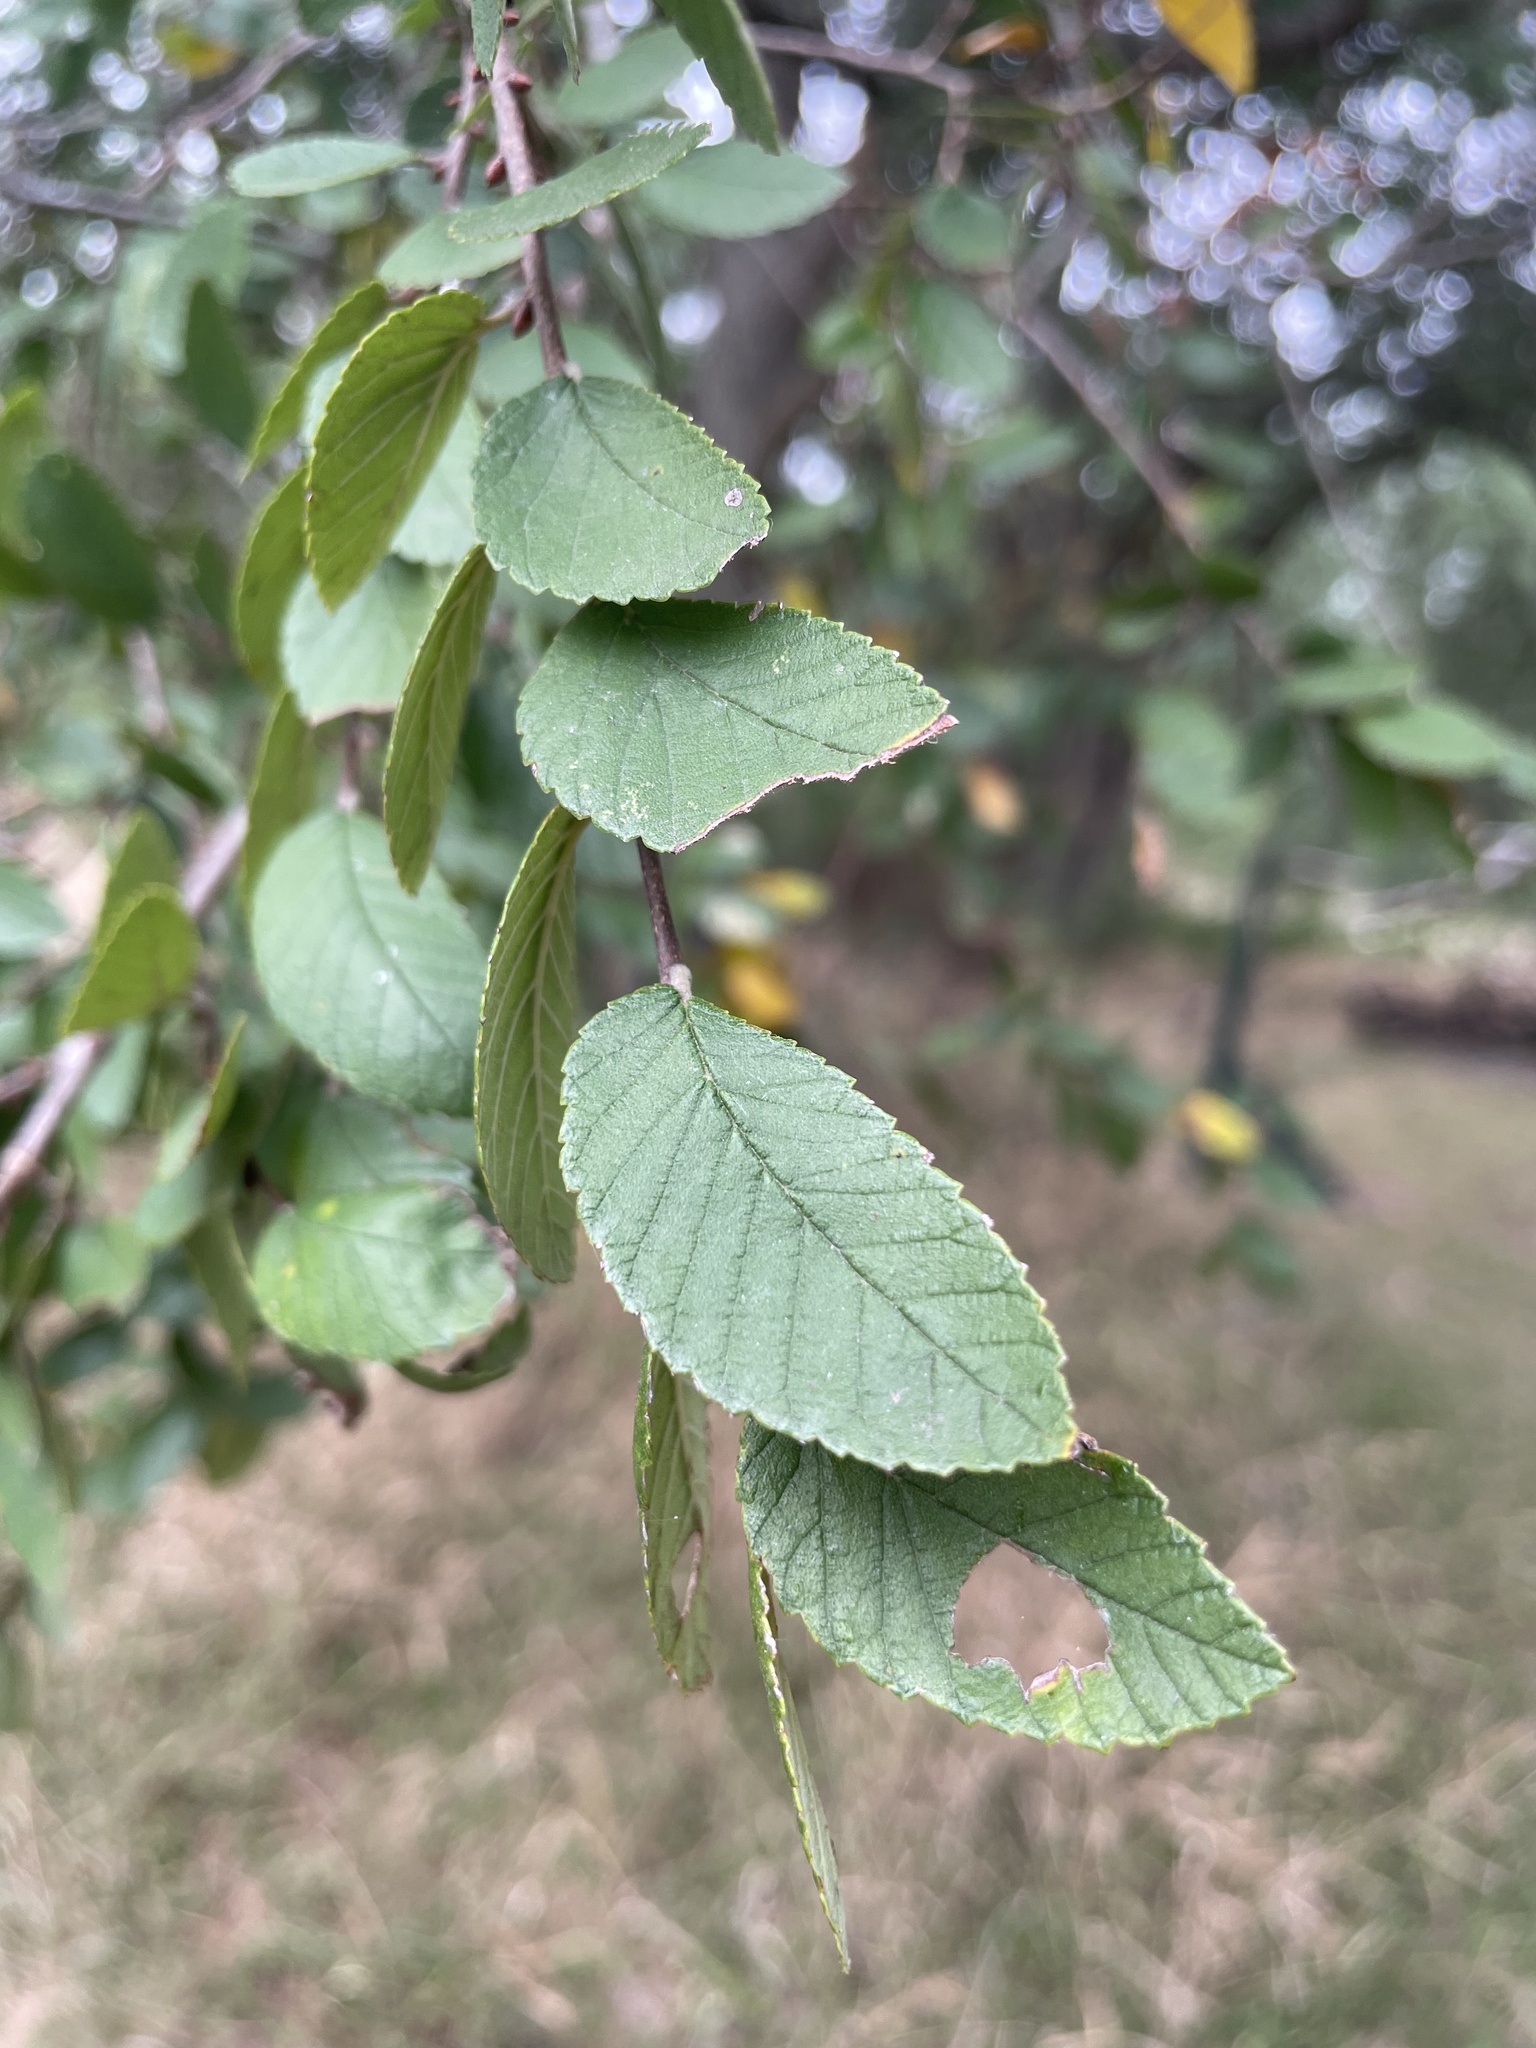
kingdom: Plantae
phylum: Tracheophyta
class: Magnoliopsida
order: Rosales
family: Ulmaceae
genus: Ulmus
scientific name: Ulmus crassifolia
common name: Basket elm
